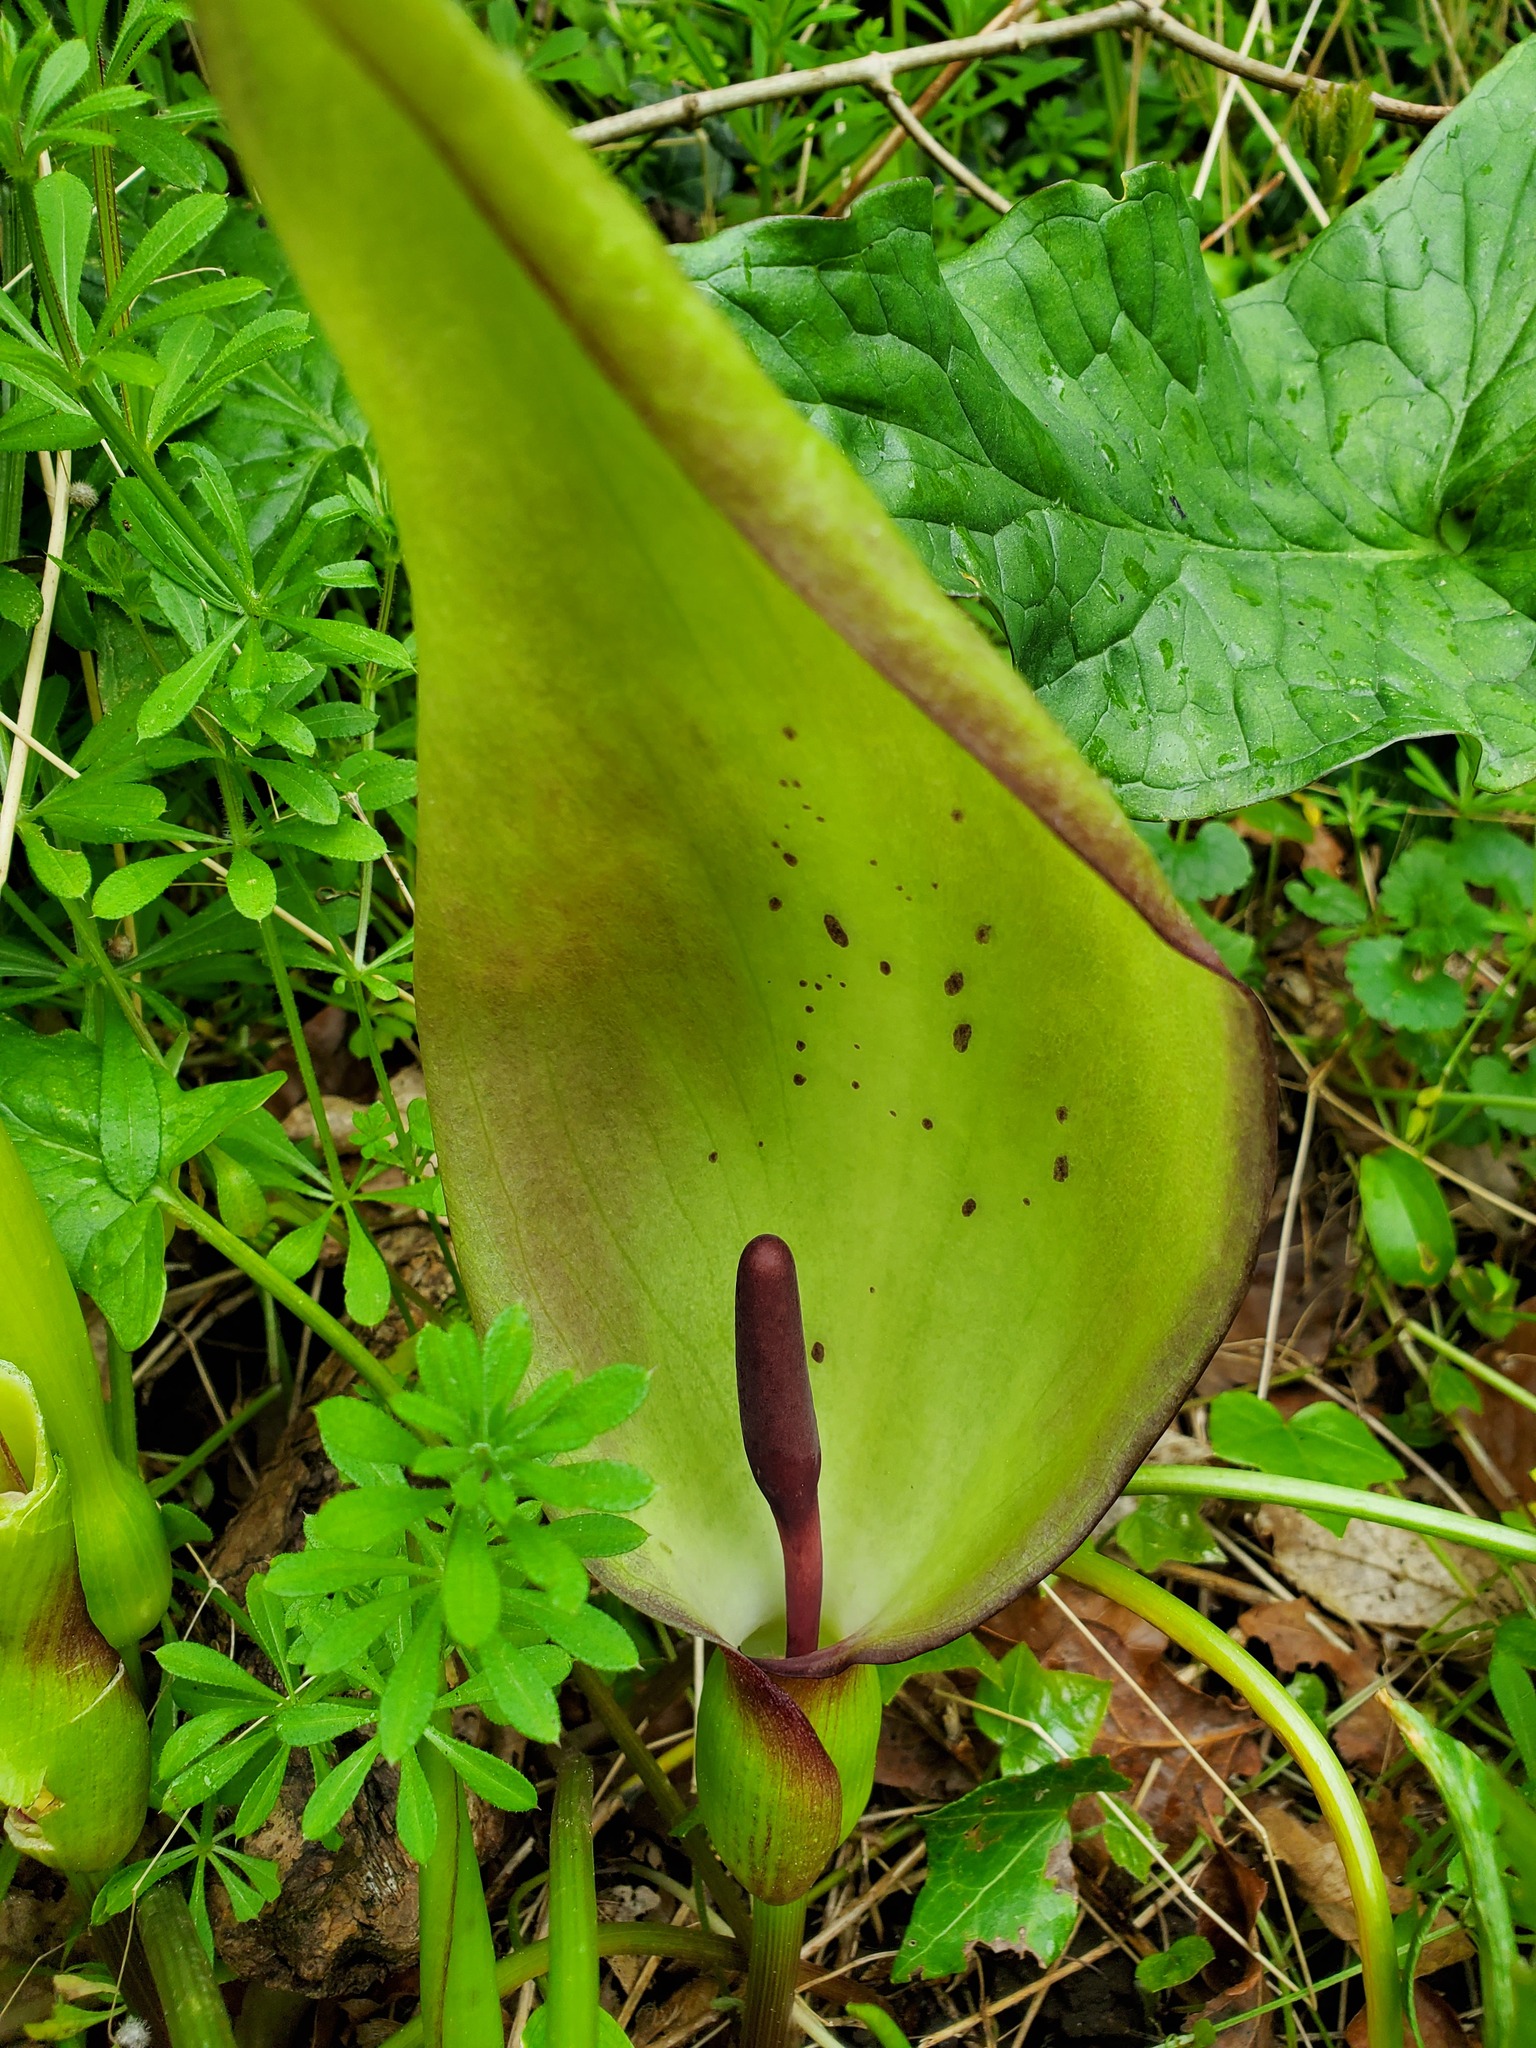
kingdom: Plantae
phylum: Tracheophyta
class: Liliopsida
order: Alismatales
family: Araceae
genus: Arum
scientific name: Arum maculatum
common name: Lords-and-ladies
